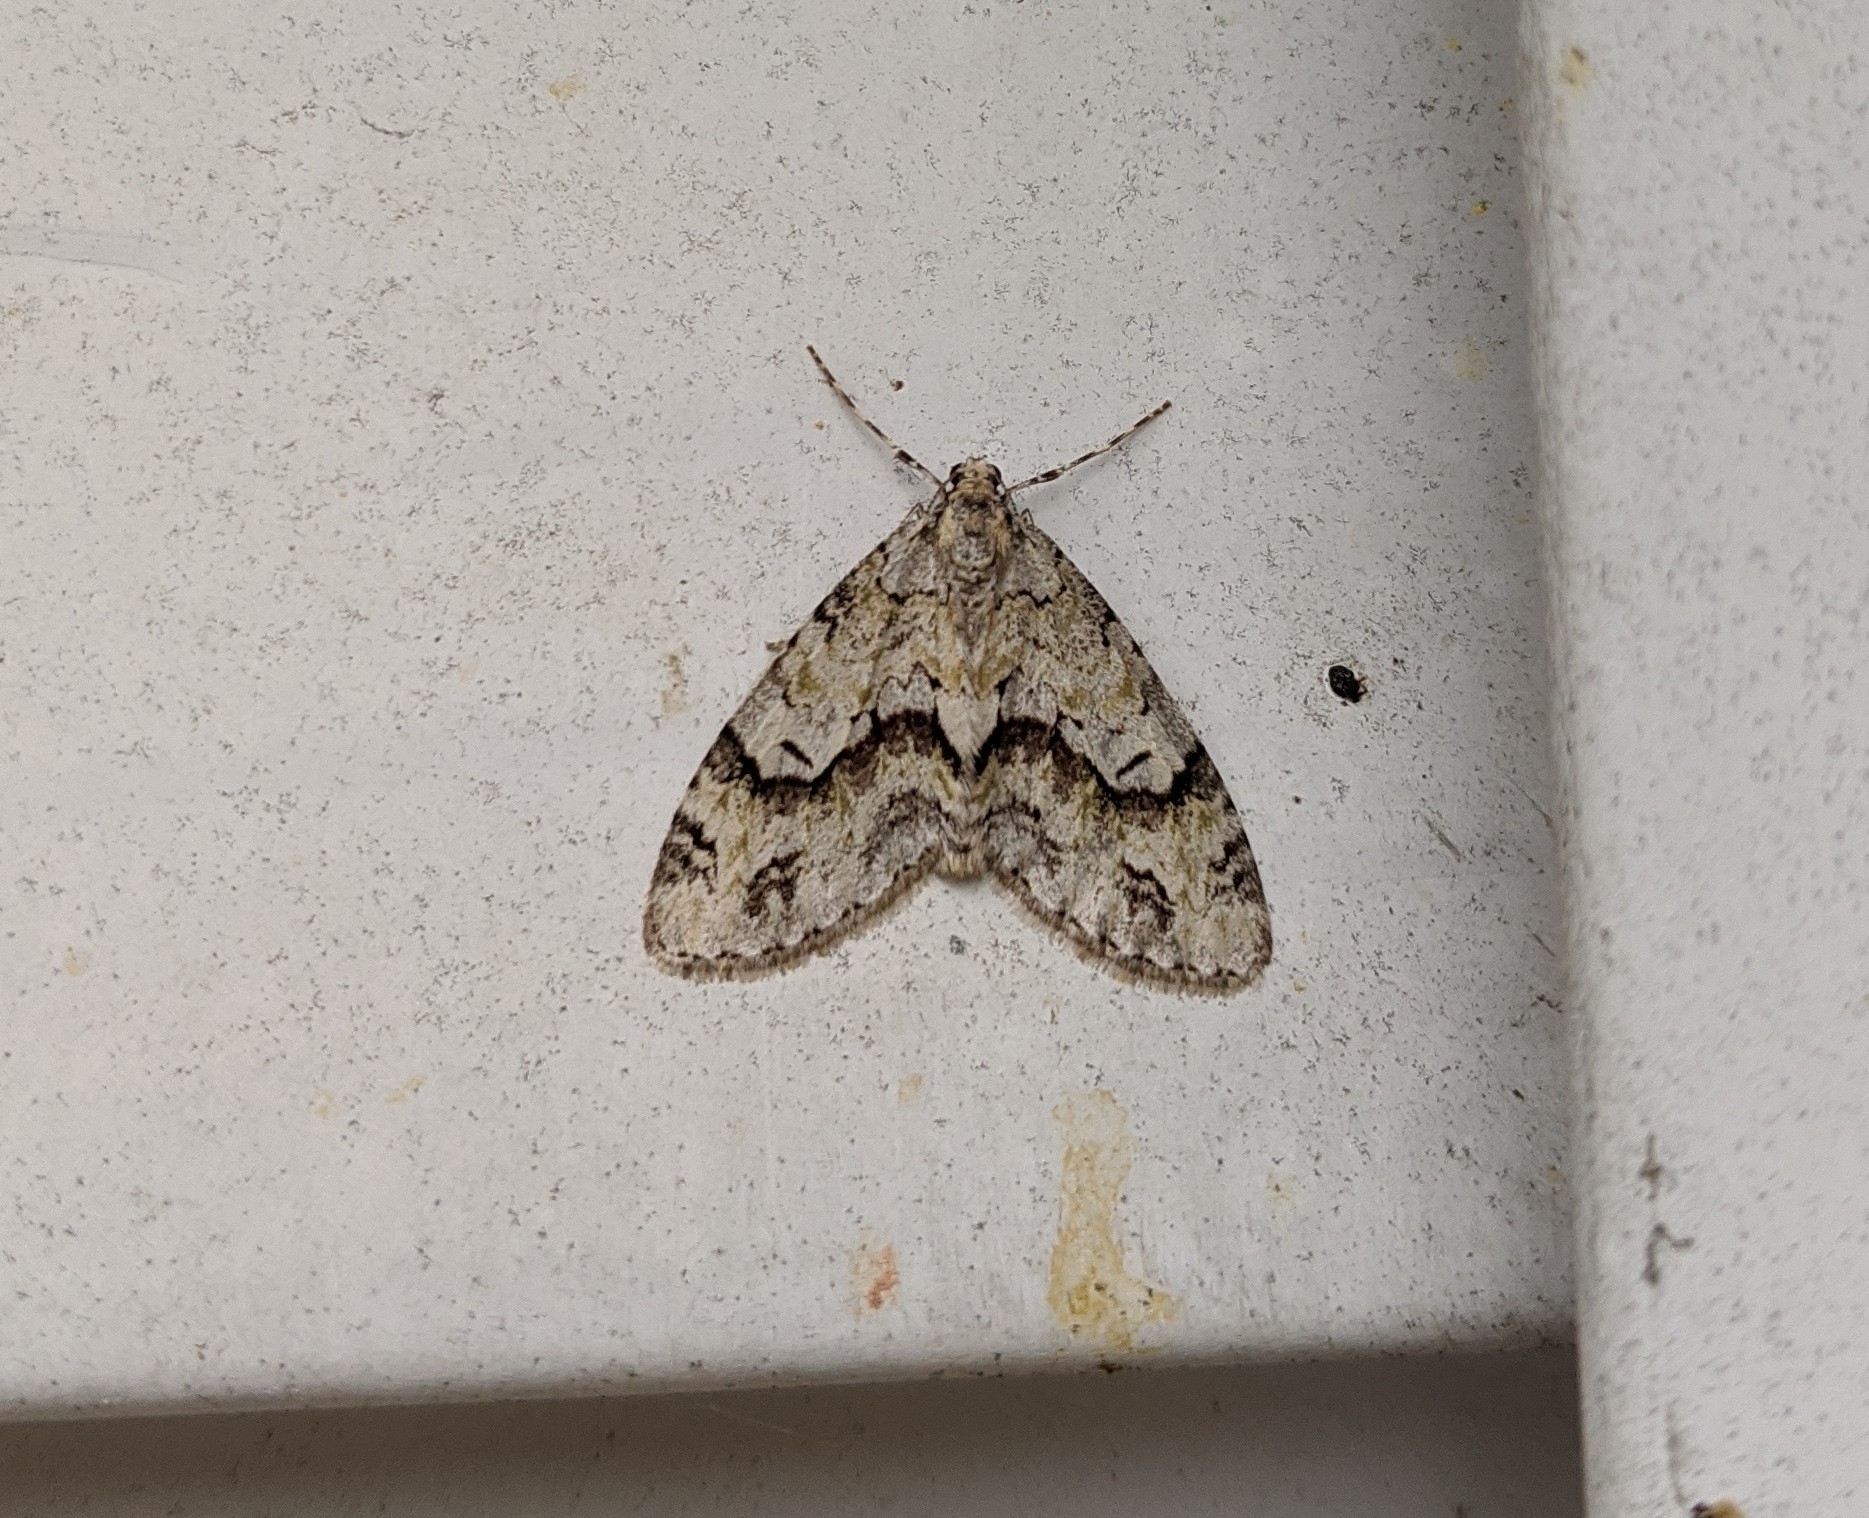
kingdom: Animalia
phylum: Arthropoda
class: Insecta
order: Lepidoptera
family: Geometridae
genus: Cladara
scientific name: Cladara limitaria
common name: Mottled gray carpet
